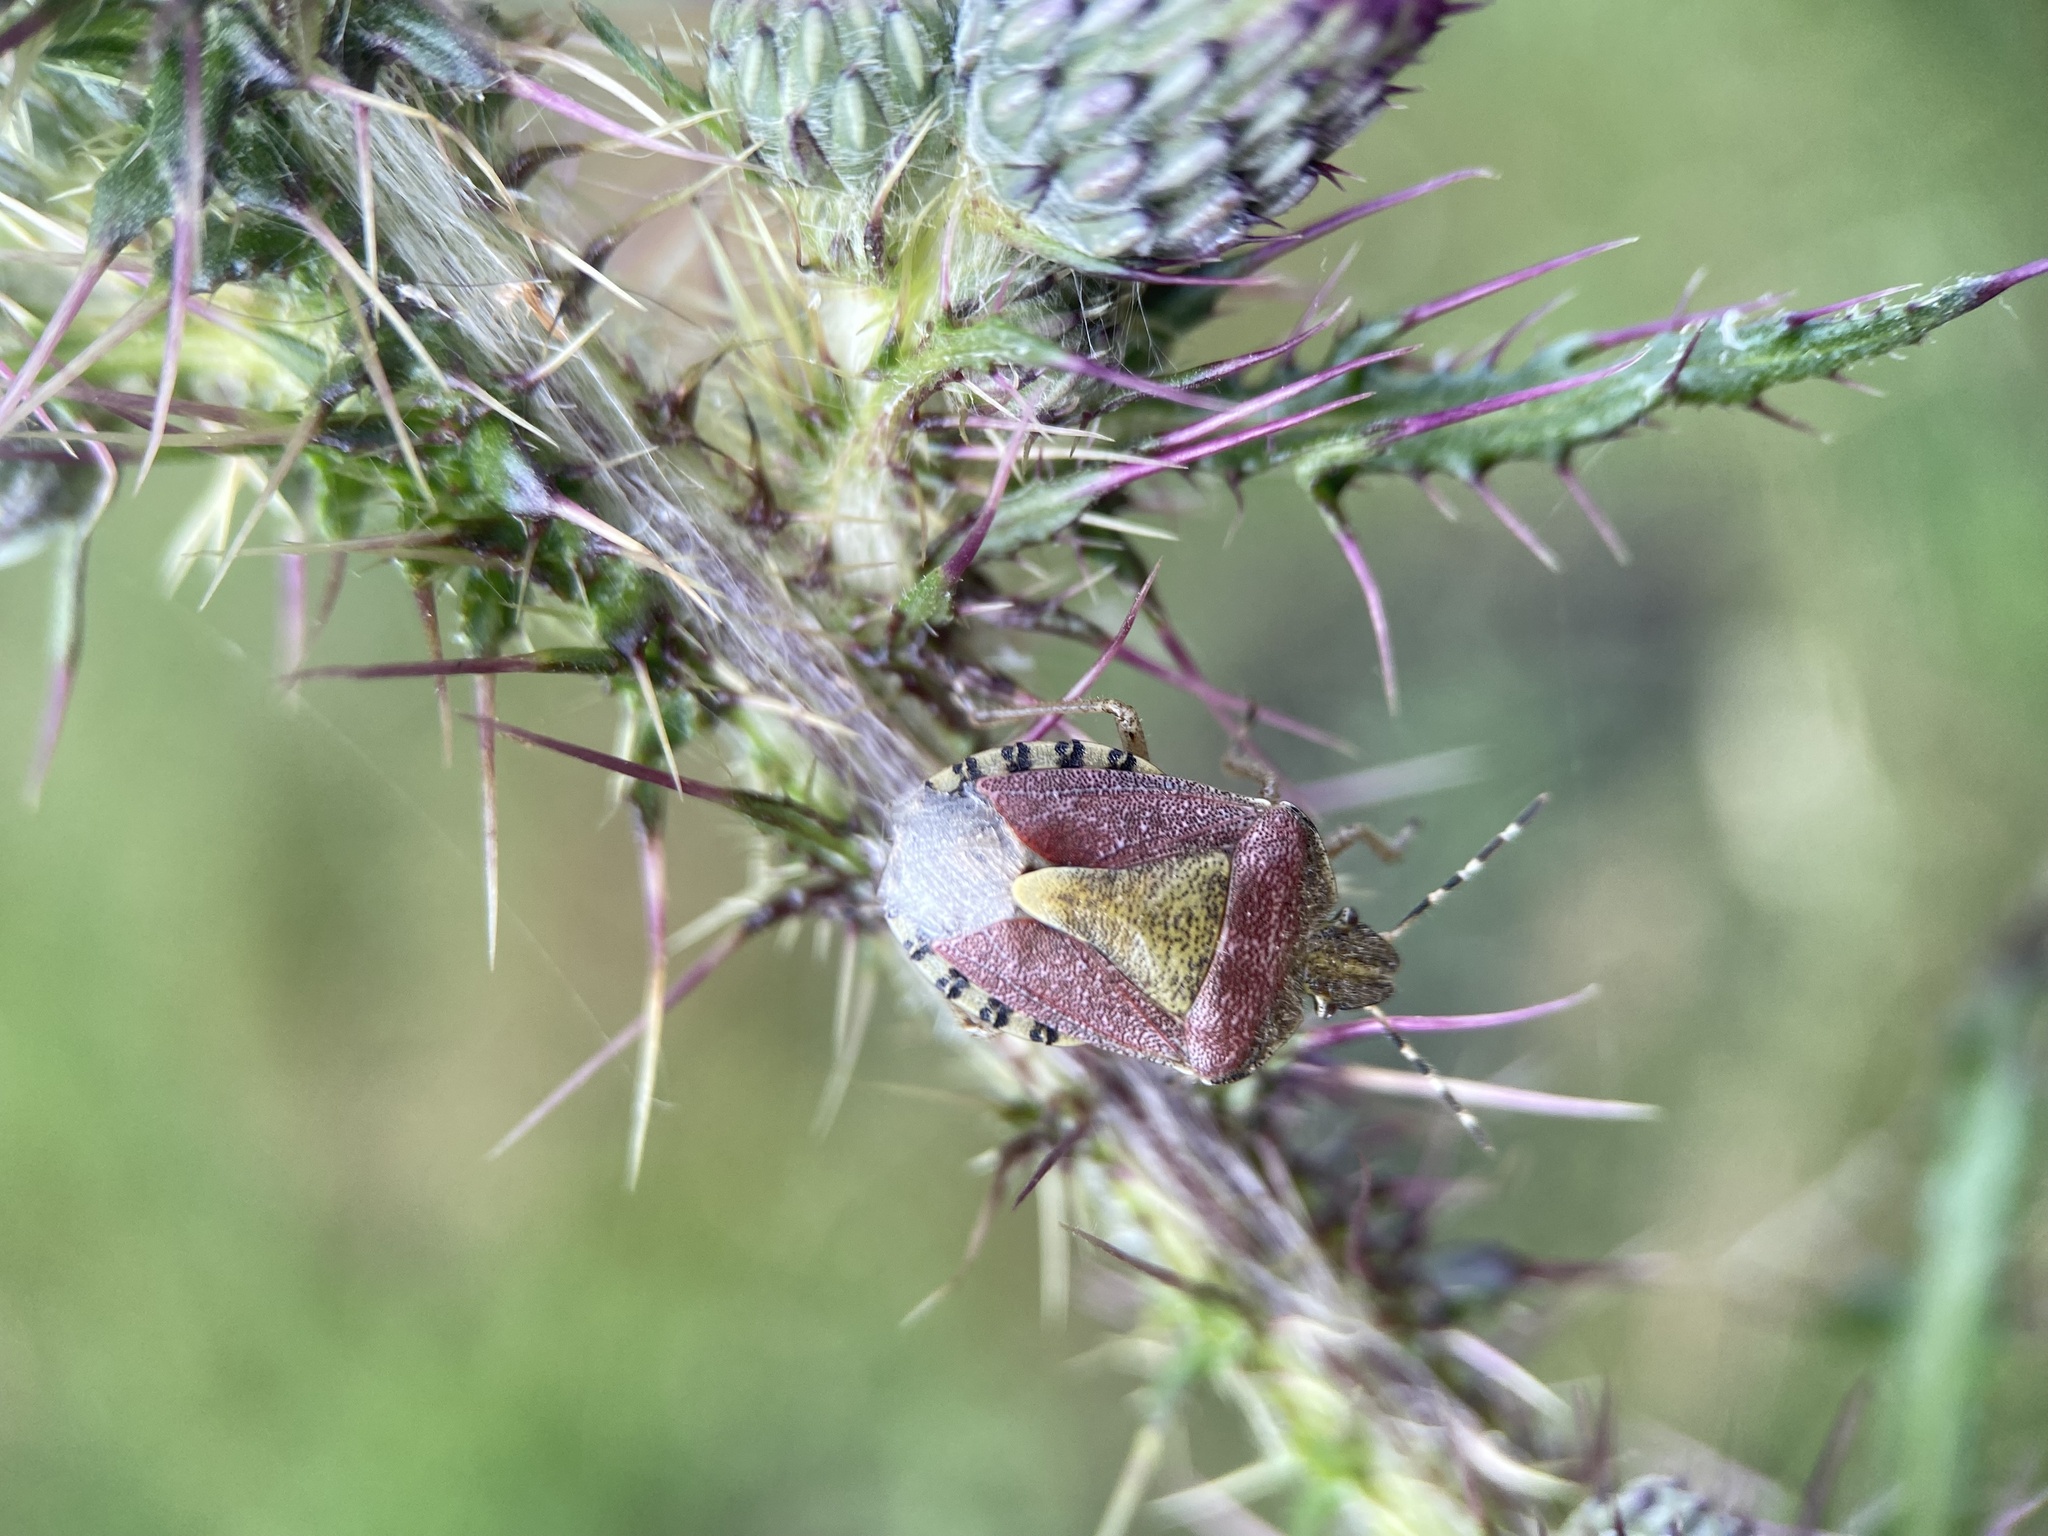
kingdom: Animalia
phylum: Arthropoda
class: Insecta
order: Hemiptera
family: Pentatomidae
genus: Dolycoris
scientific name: Dolycoris baccarum
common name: Sloe bug
